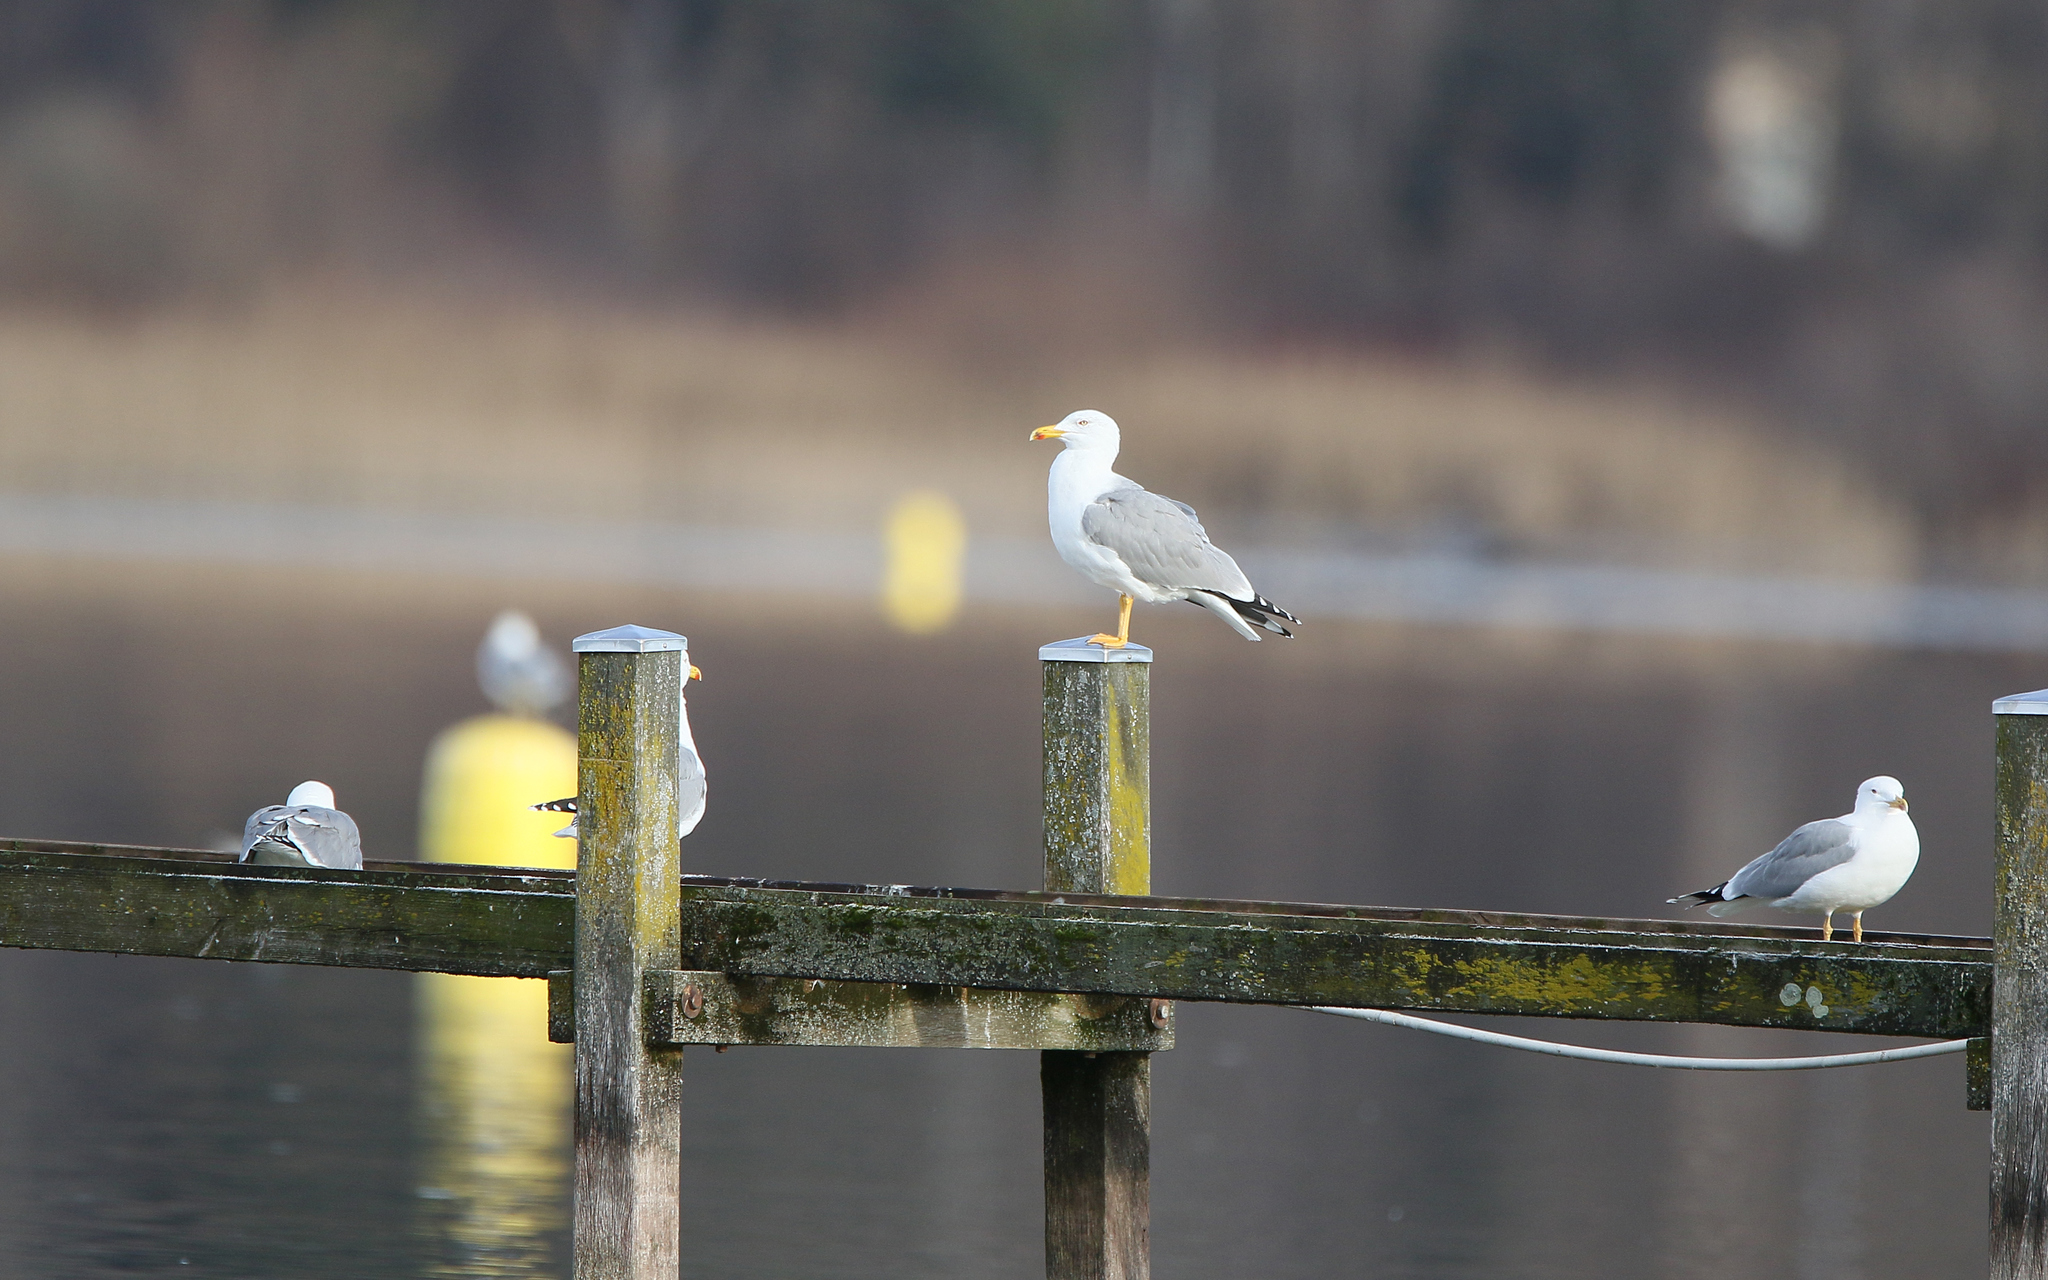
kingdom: Animalia
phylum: Chordata
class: Aves
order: Charadriiformes
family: Laridae
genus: Larus
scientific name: Larus michahellis
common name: Yellow-legged gull
